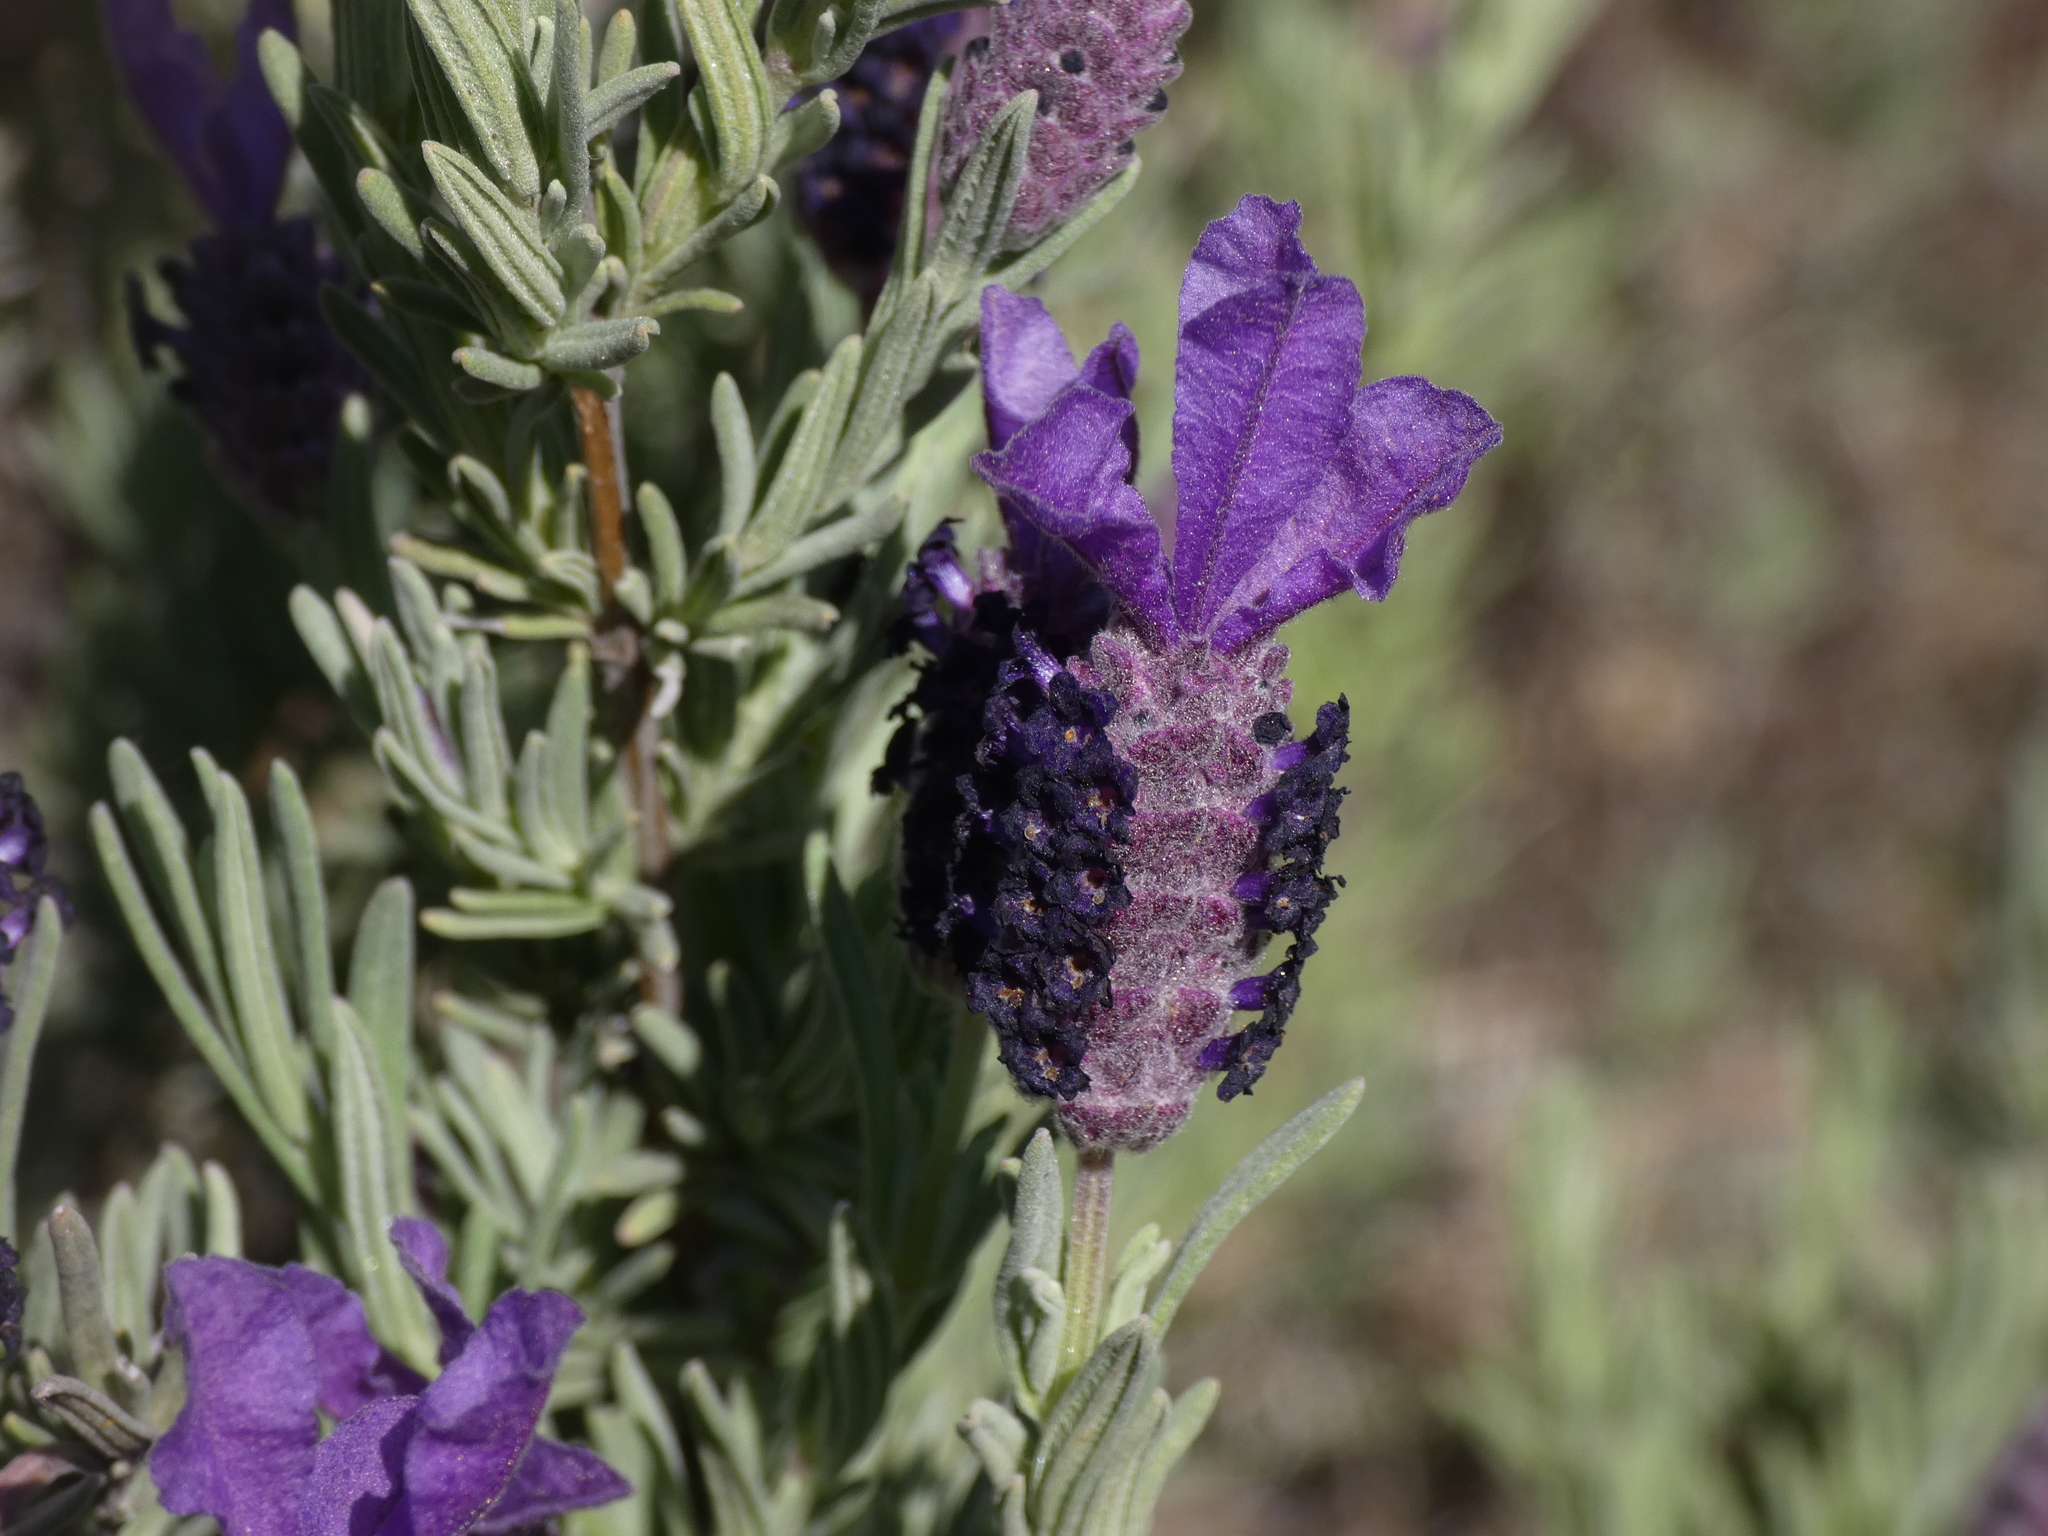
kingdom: Plantae
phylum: Tracheophyta
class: Magnoliopsida
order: Lamiales
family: Lamiaceae
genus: Lavandula
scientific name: Lavandula stoechas
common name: French lavender
